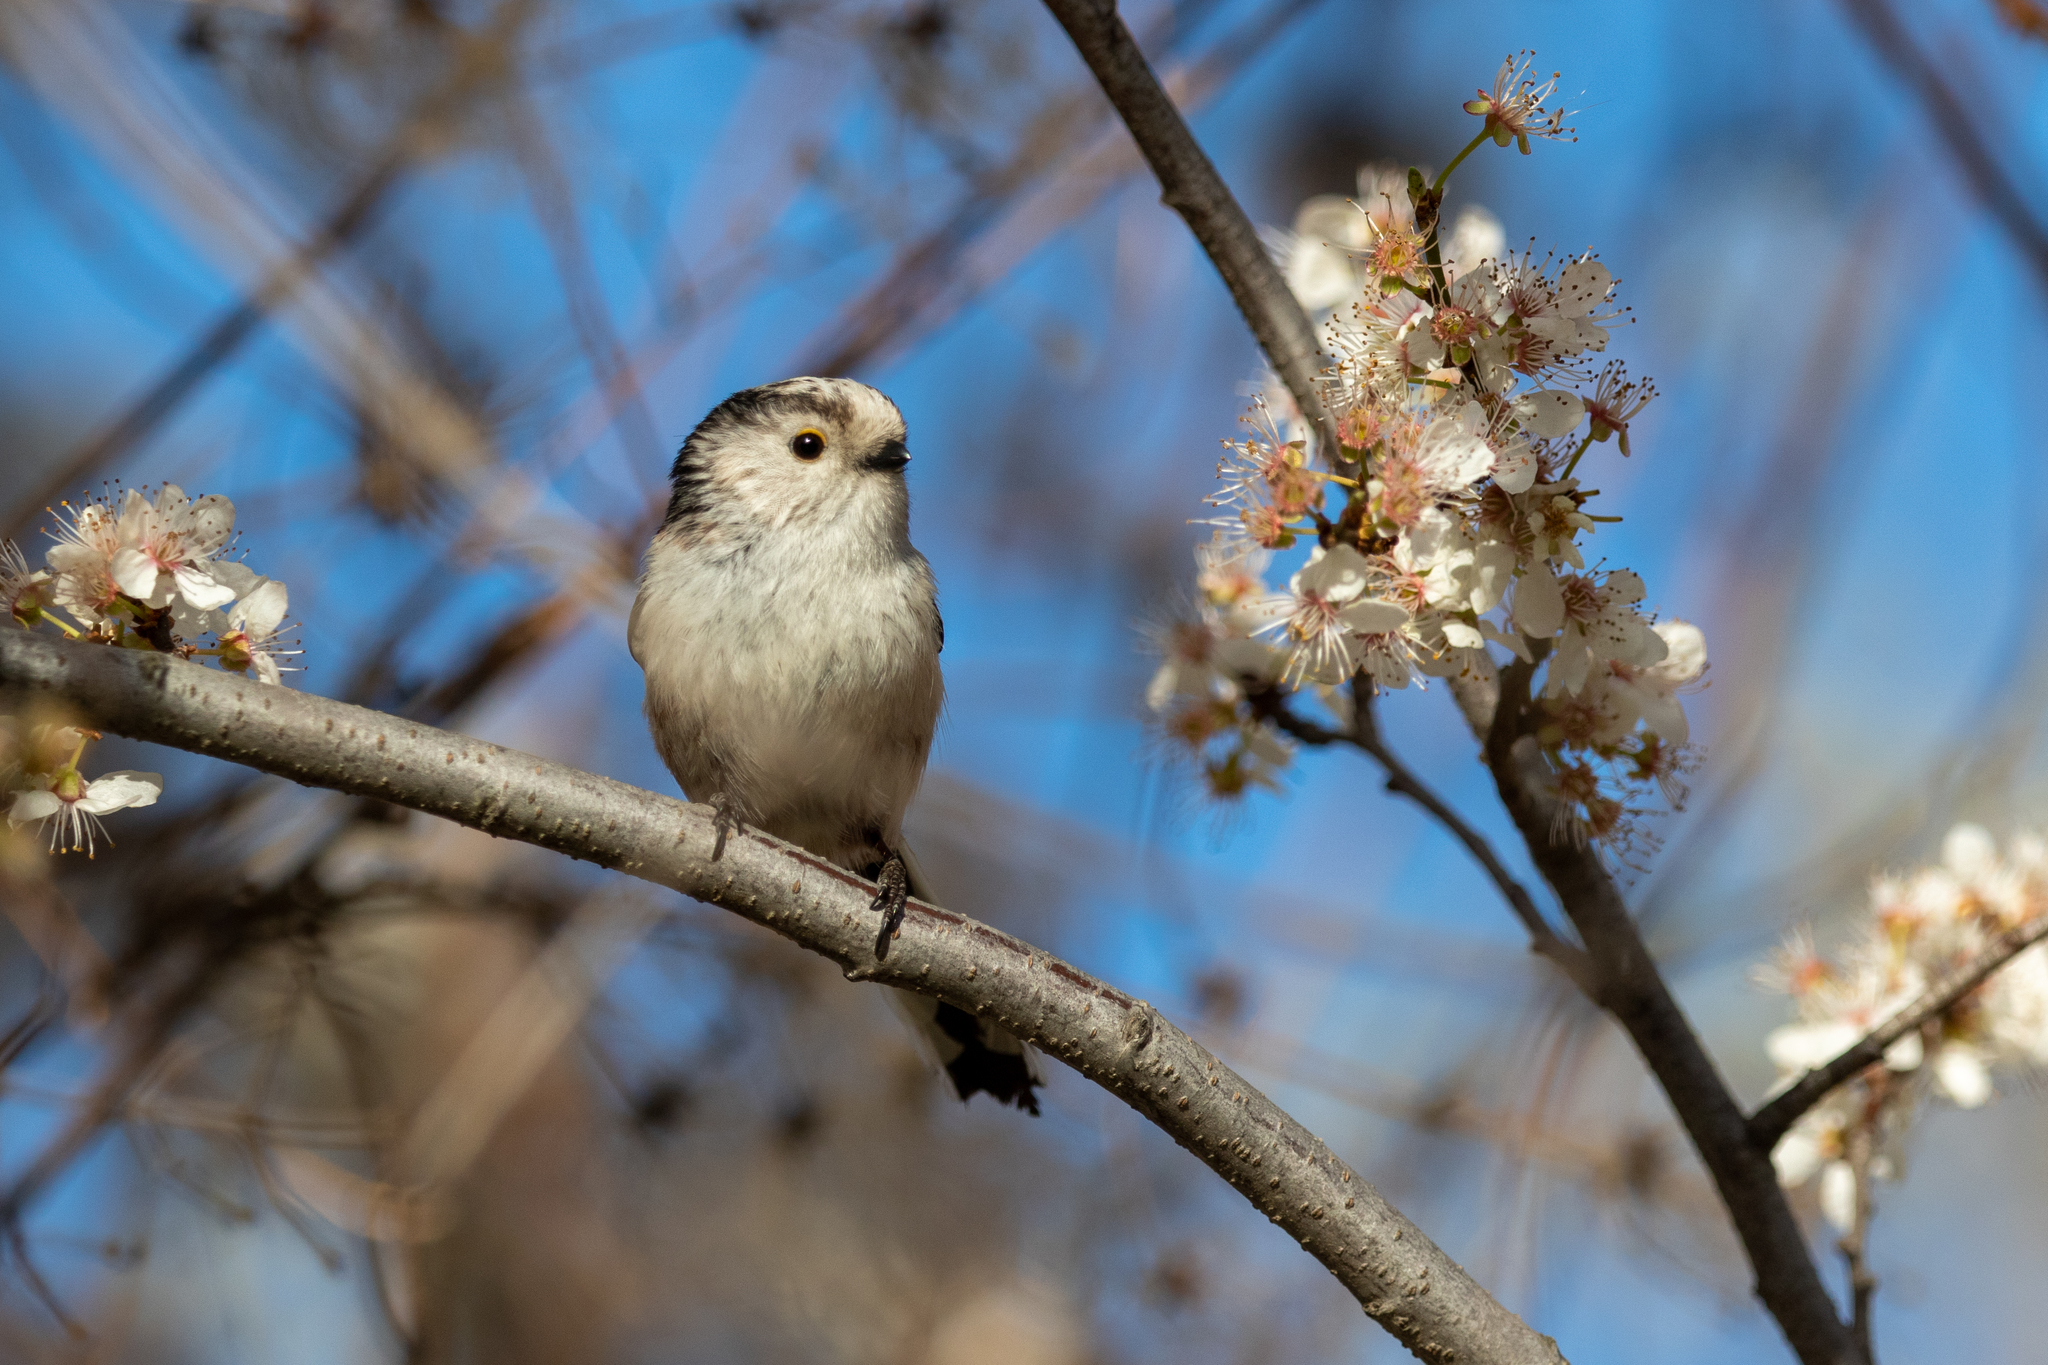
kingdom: Animalia
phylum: Chordata
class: Aves
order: Passeriformes
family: Aegithalidae
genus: Aegithalos
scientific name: Aegithalos caudatus
